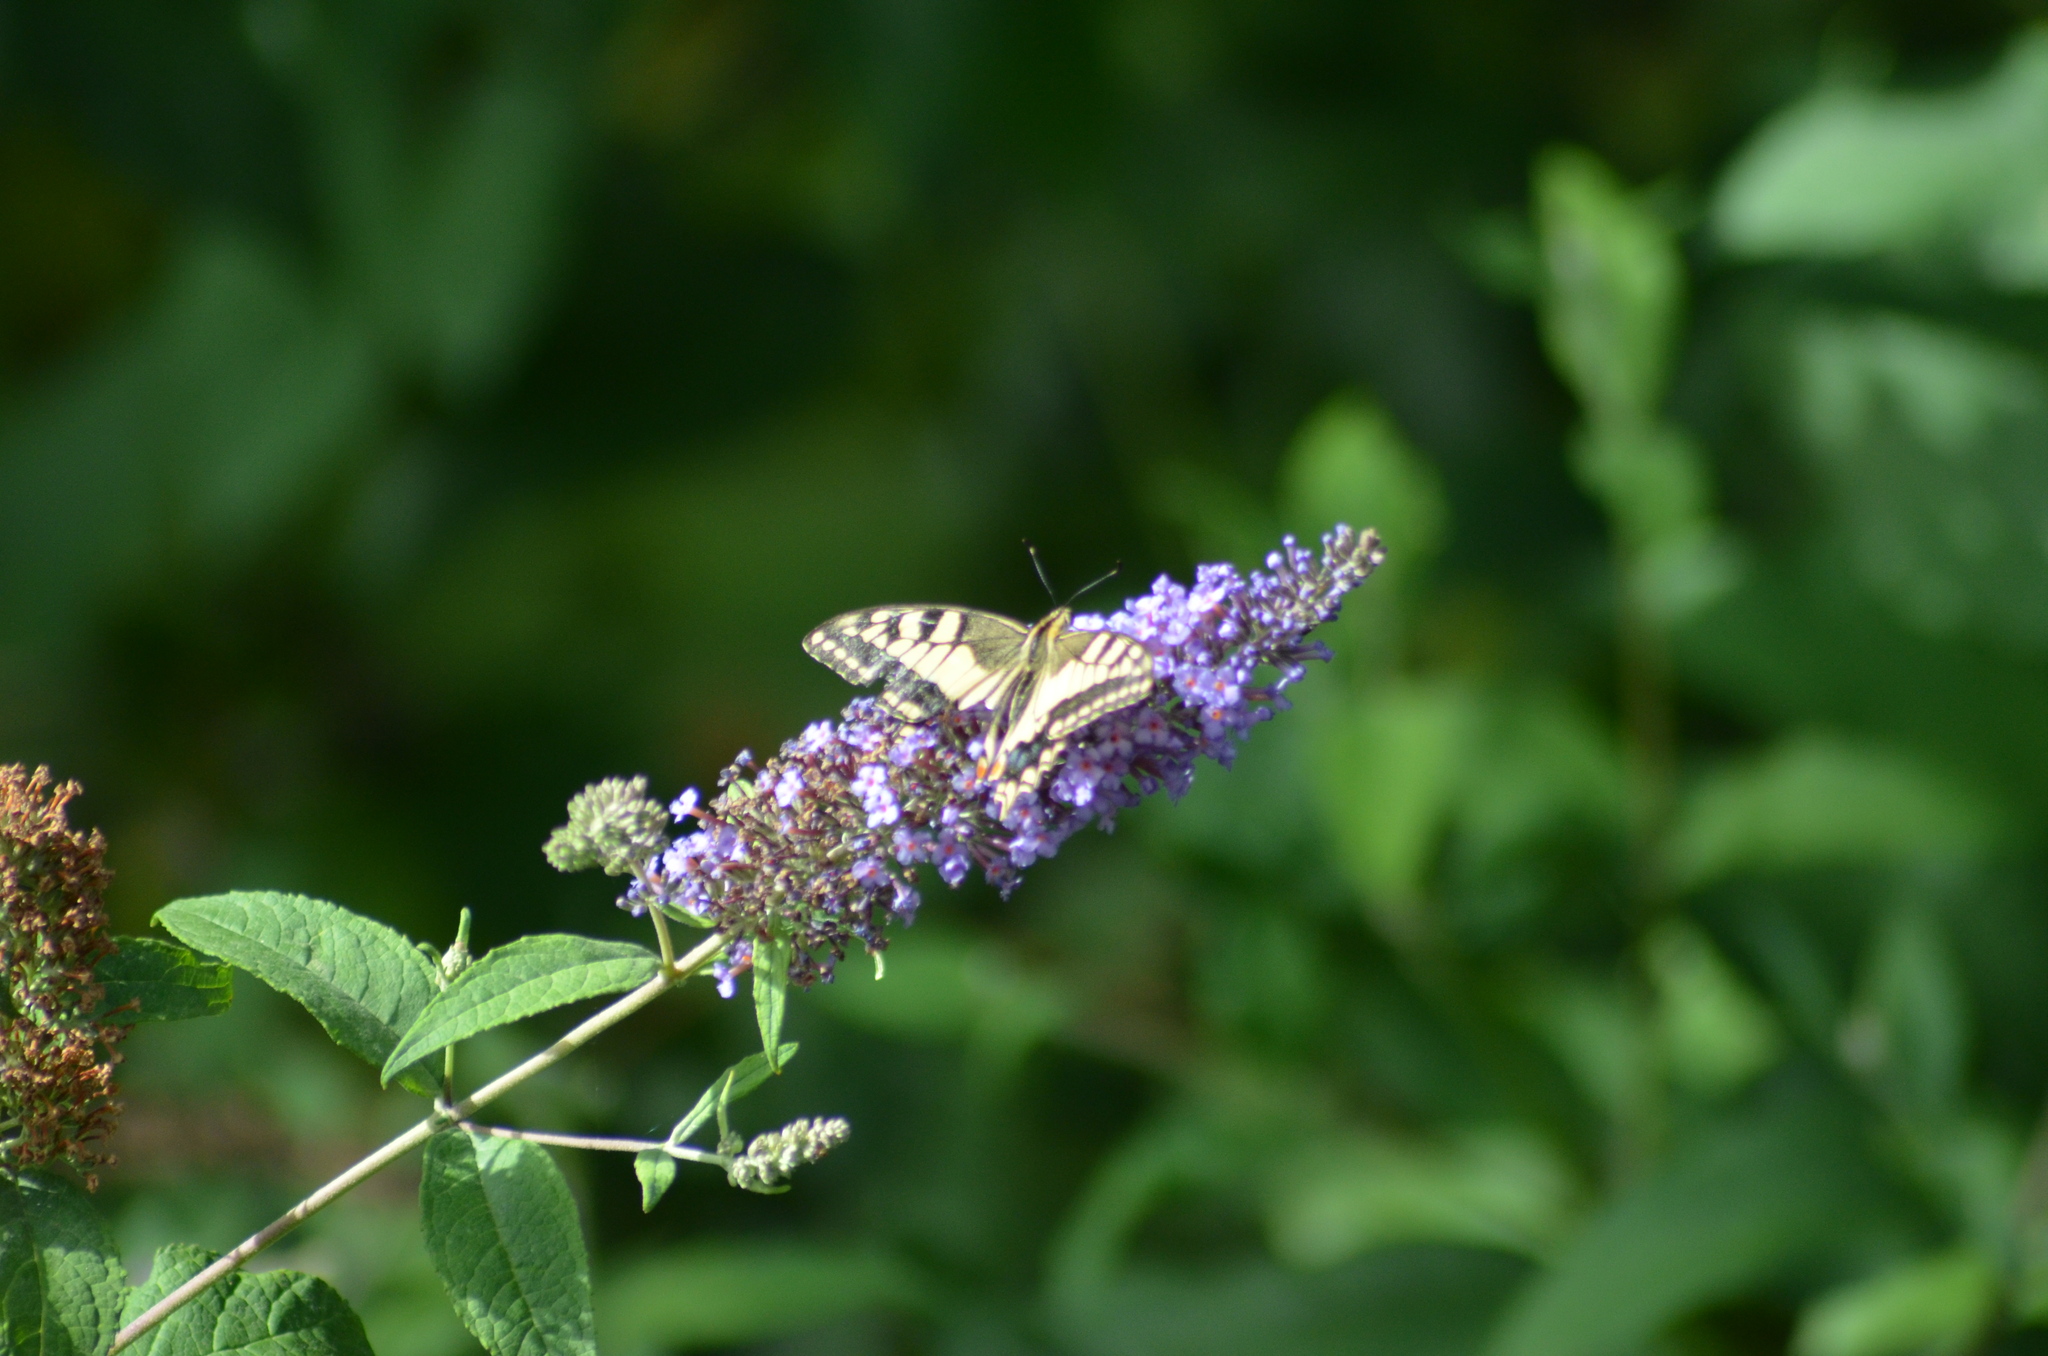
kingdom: Animalia
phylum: Arthropoda
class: Insecta
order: Lepidoptera
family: Papilionidae
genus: Papilio
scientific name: Papilio machaon
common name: Swallowtail
